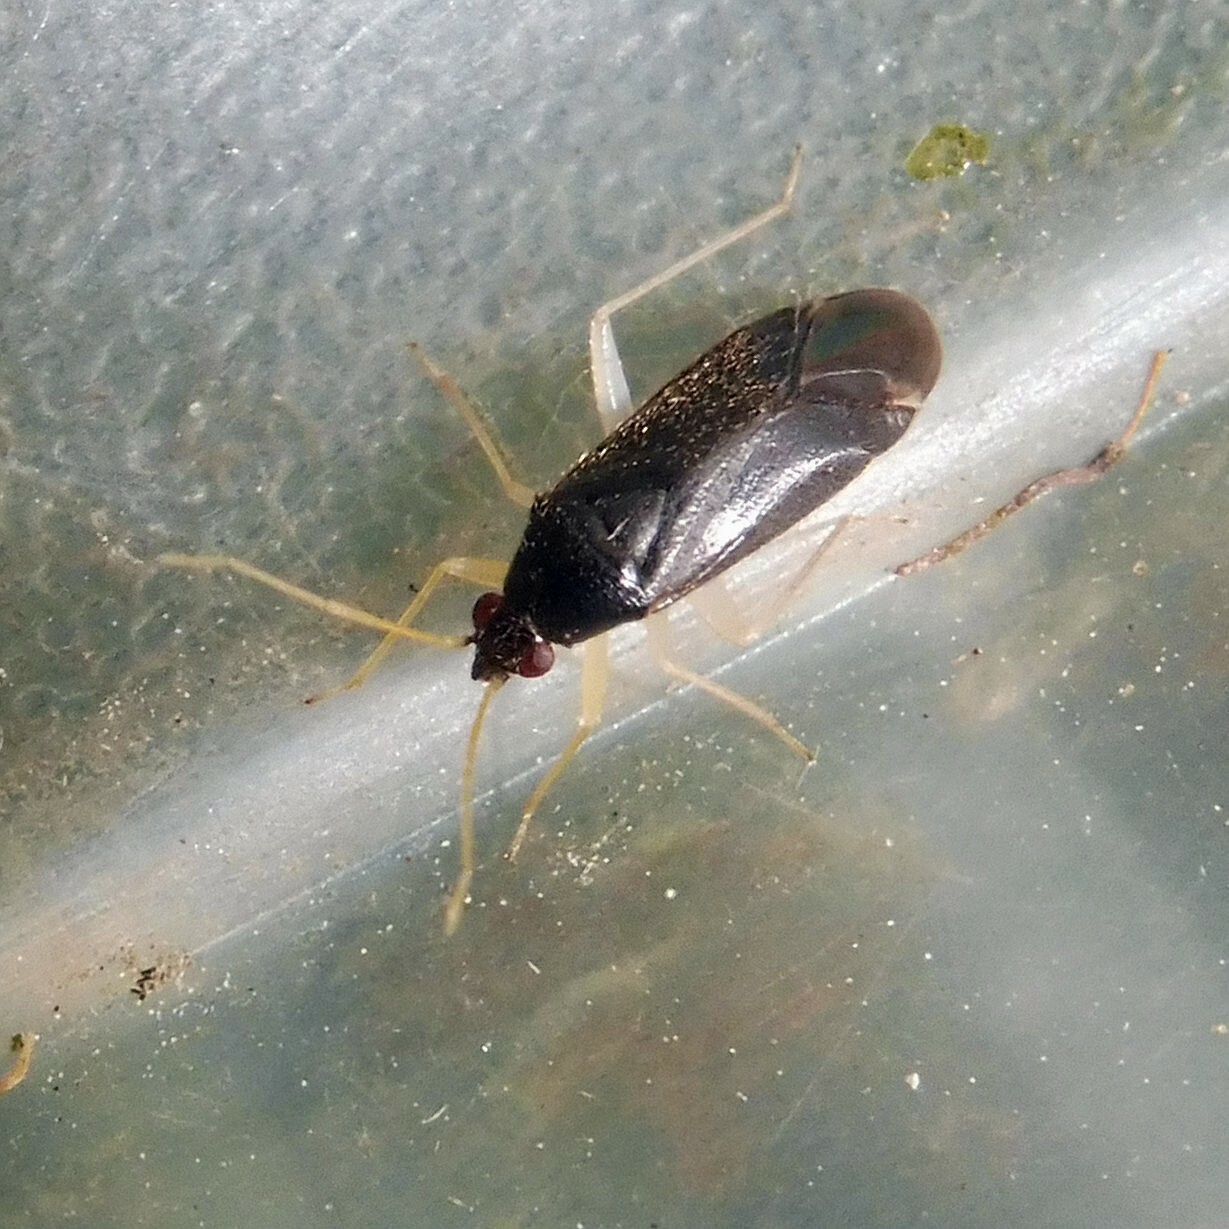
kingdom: Animalia
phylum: Arthropoda
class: Insecta
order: Hemiptera
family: Miridae
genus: Phylus
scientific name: Phylus coryli
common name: Plant bug
